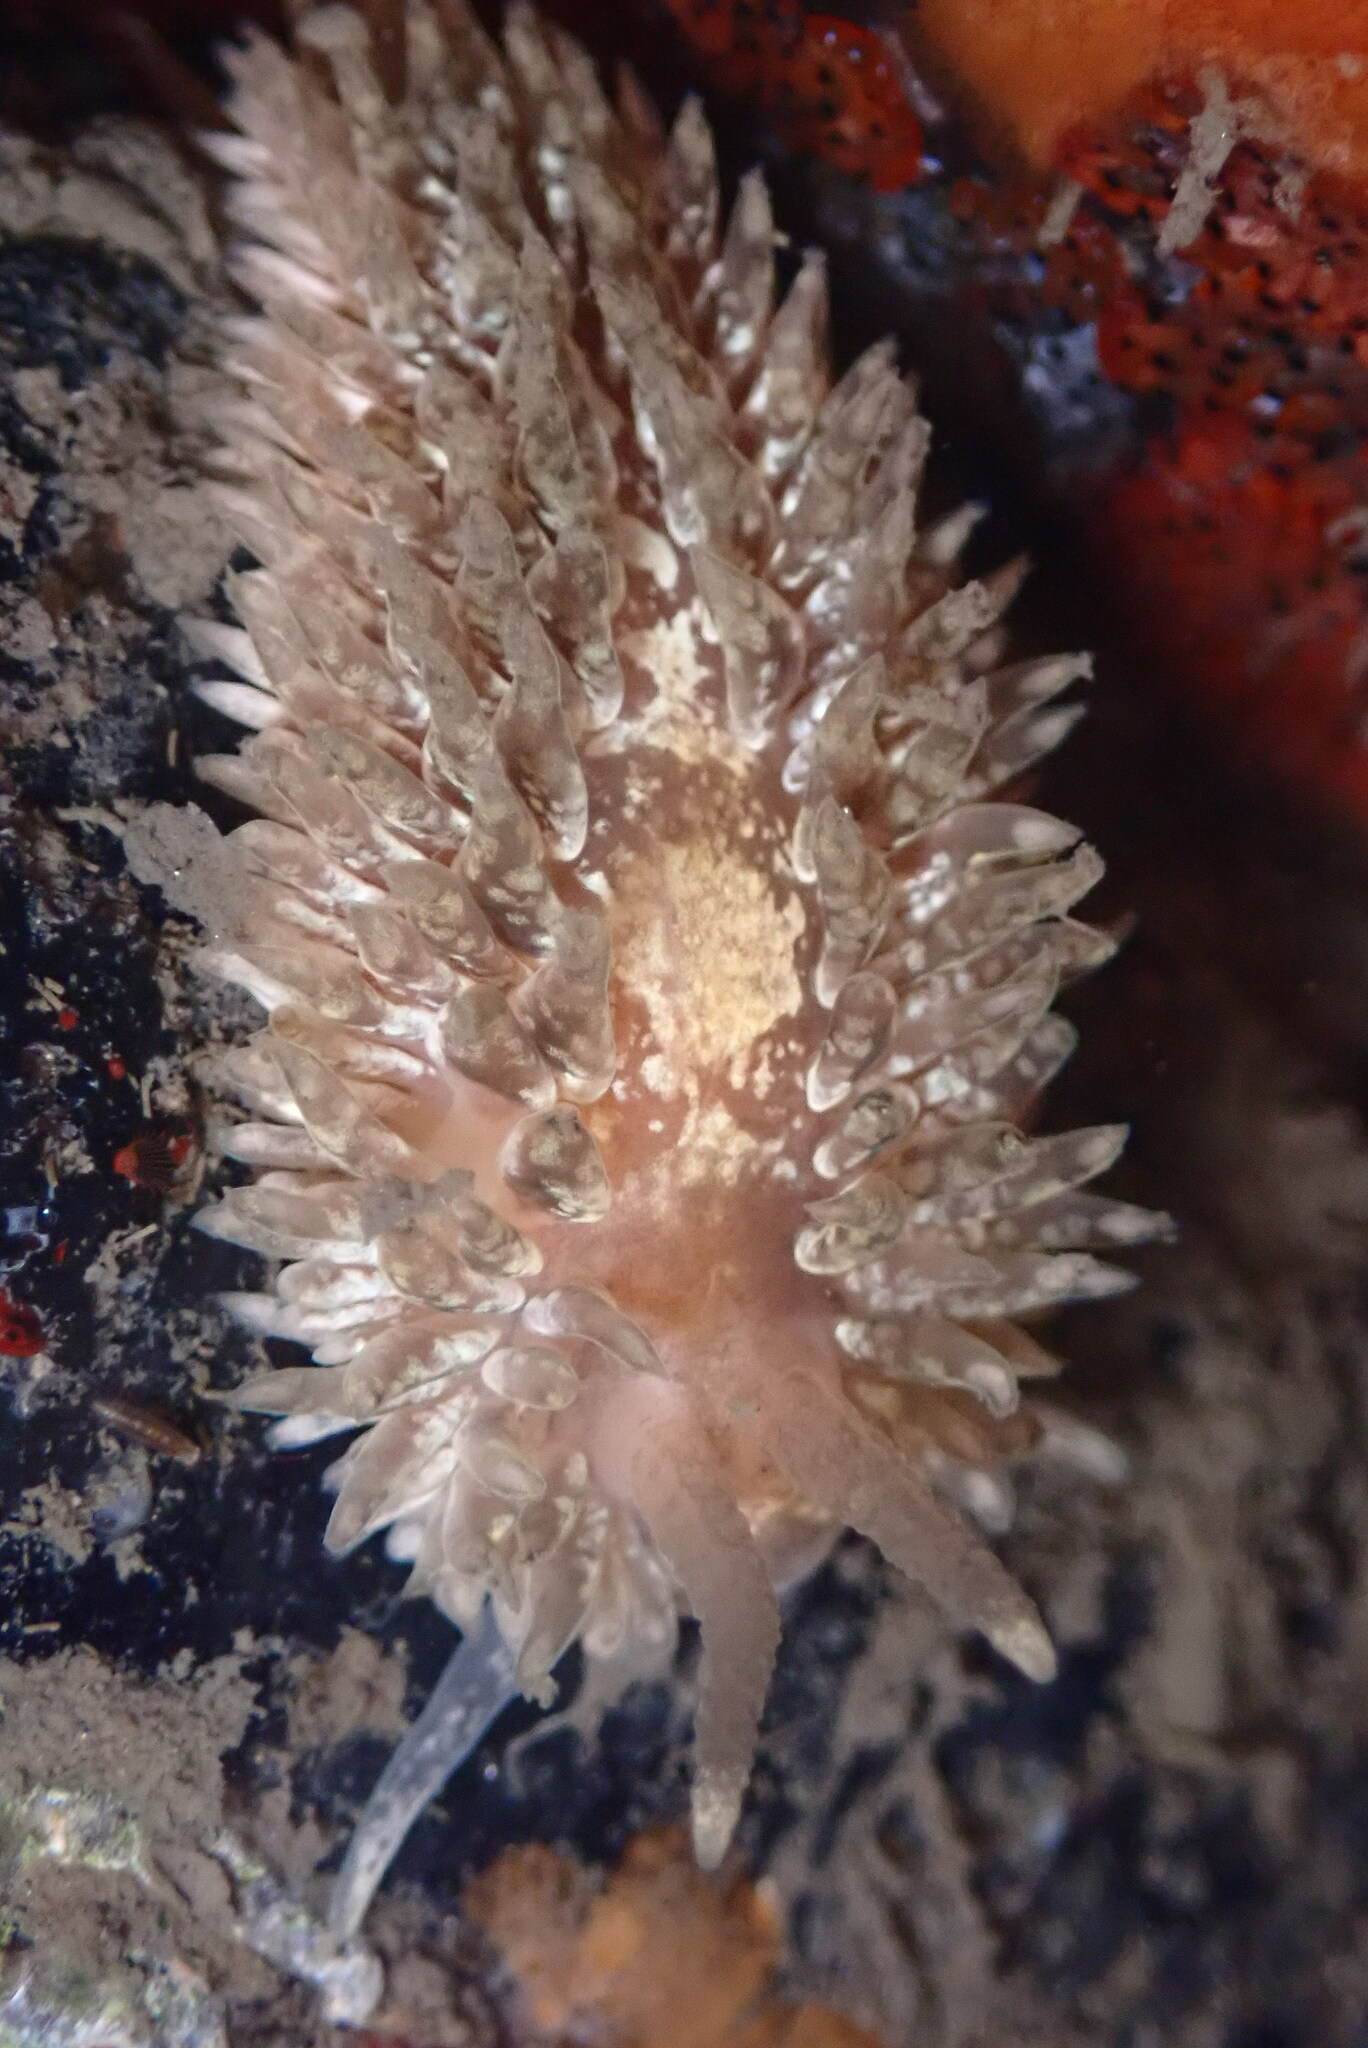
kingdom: Animalia
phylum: Mollusca
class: Gastropoda
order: Nudibranchia
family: Aeolidiidae
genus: Aeolidia
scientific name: Aeolidia loui
